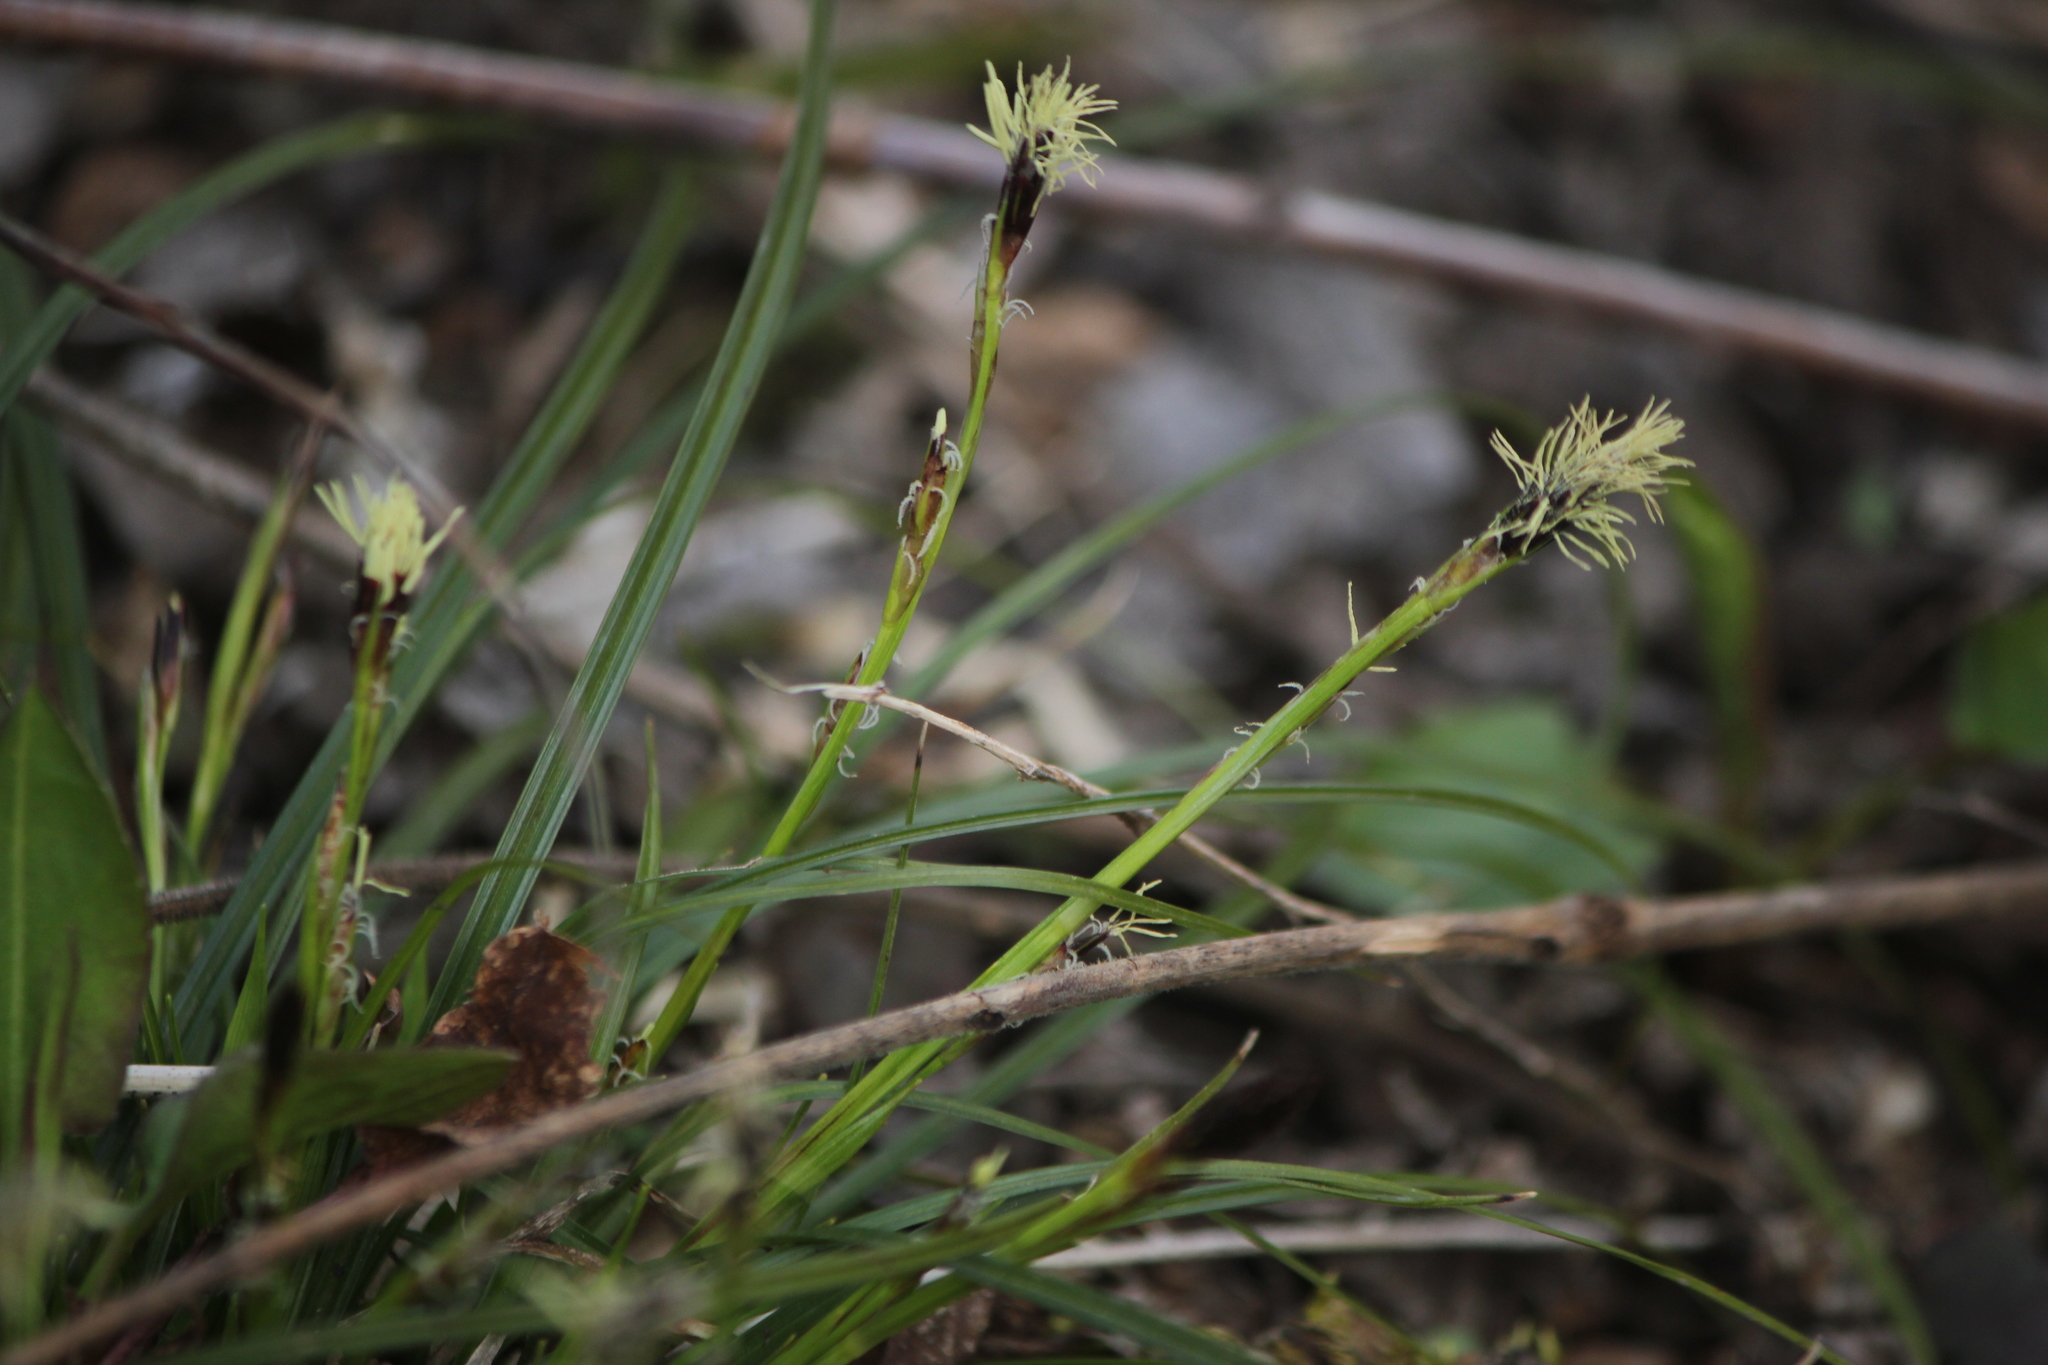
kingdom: Plantae
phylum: Tracheophyta
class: Liliopsida
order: Poales
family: Cyperaceae
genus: Carex
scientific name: Carex pedunculata
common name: Pedunculate sedge
